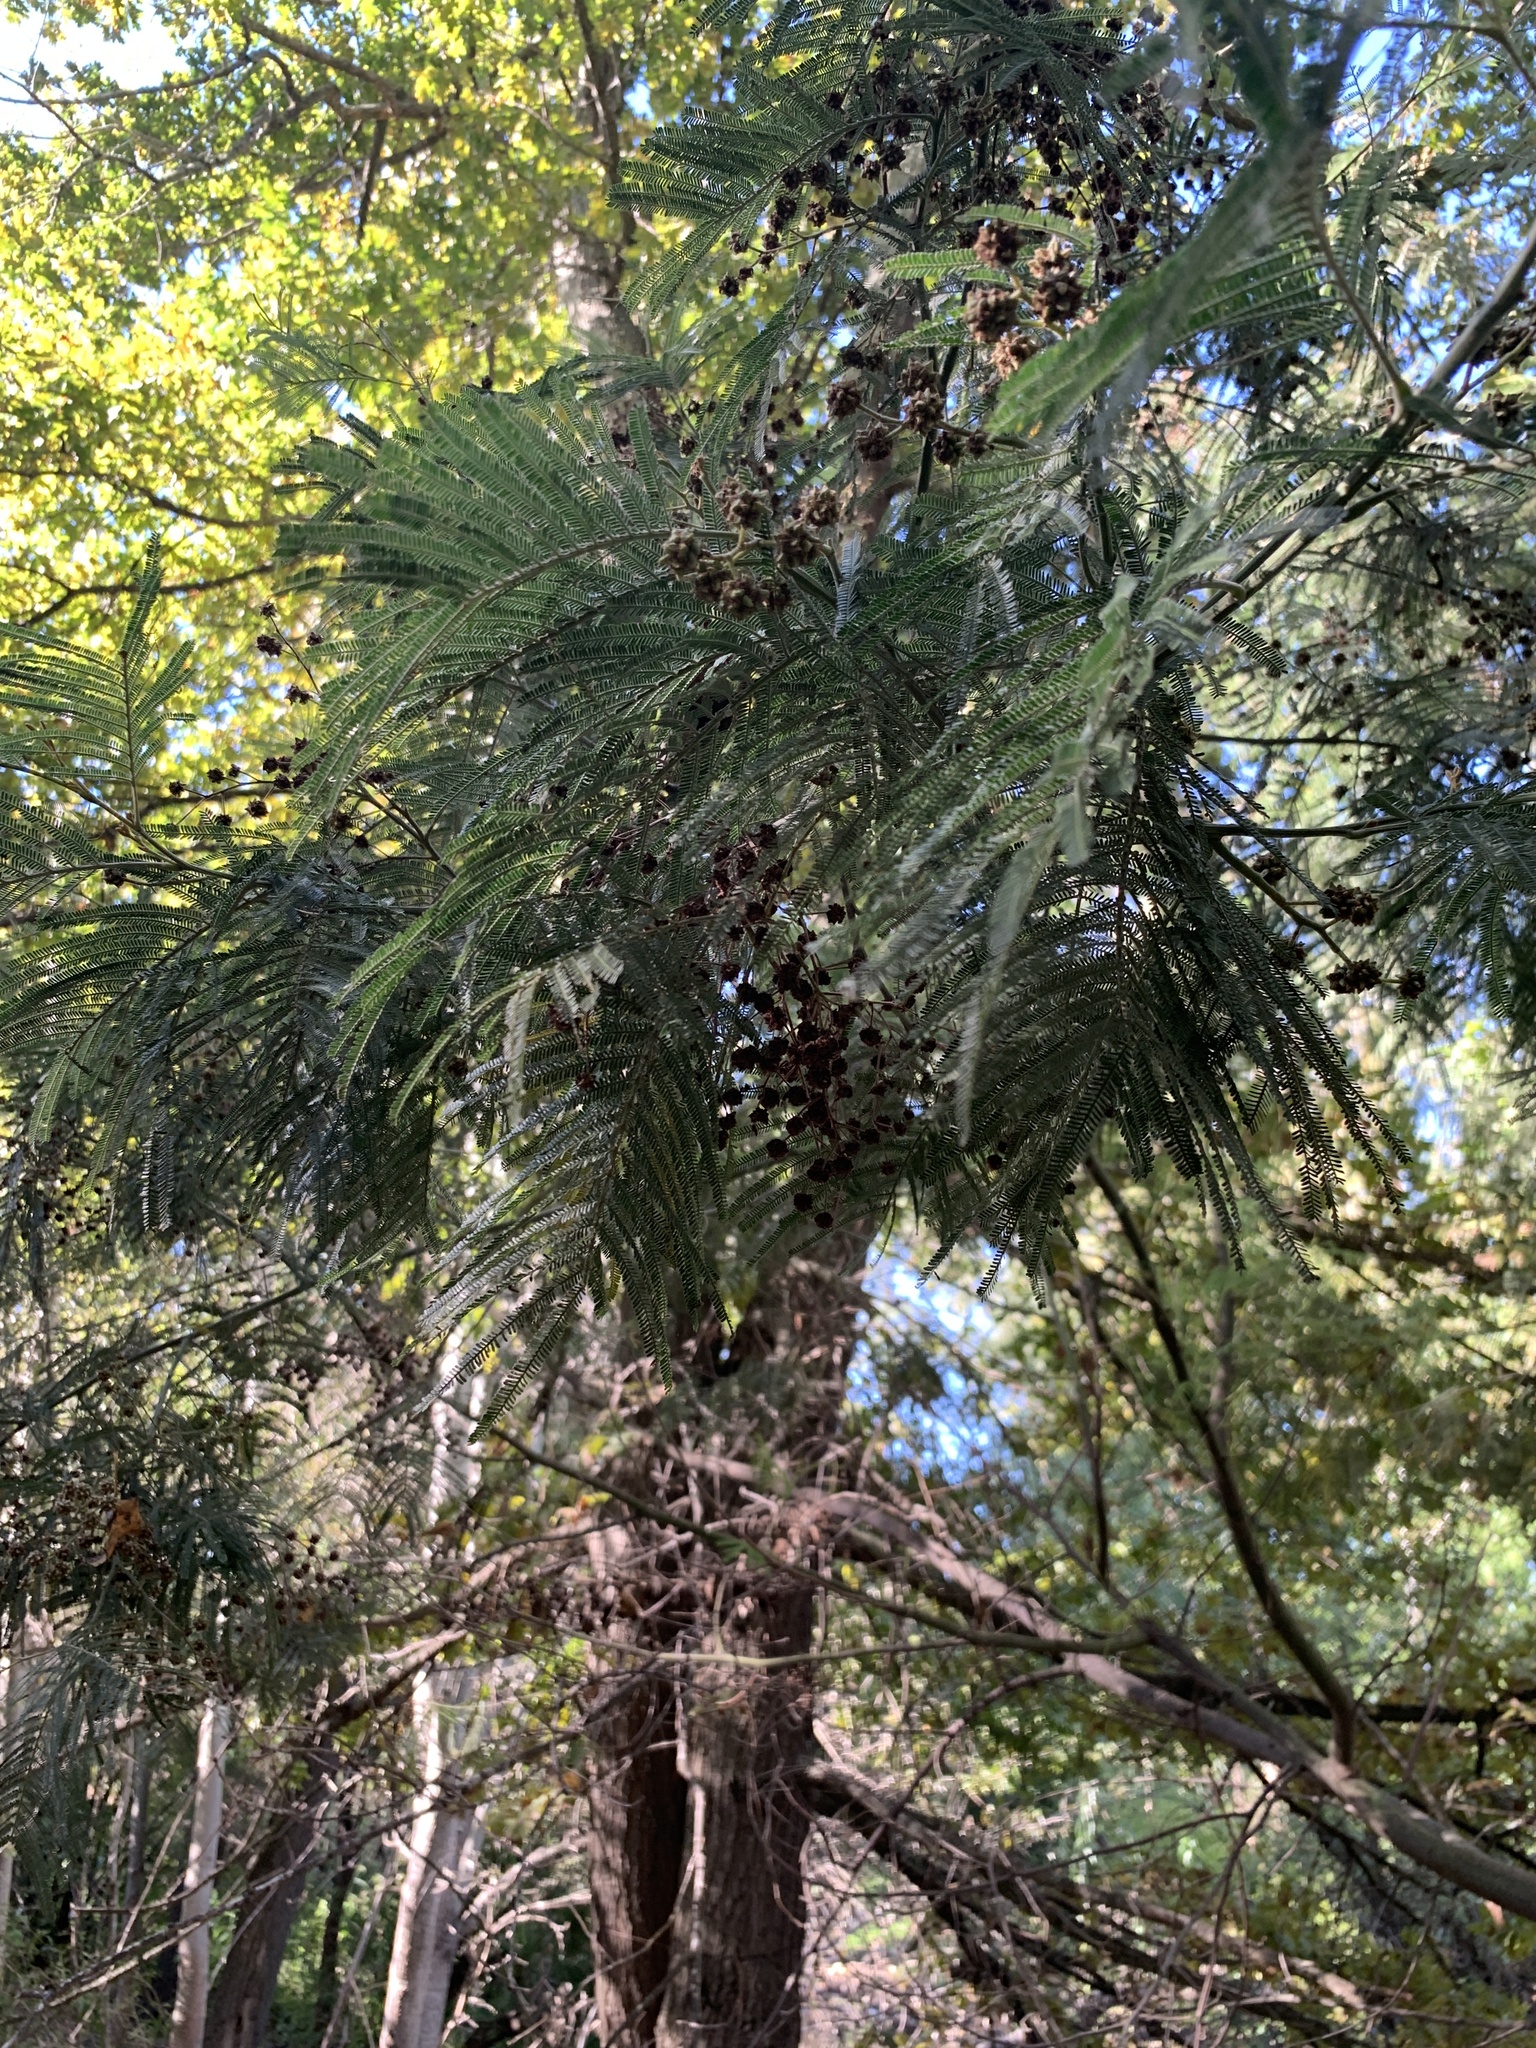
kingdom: Animalia
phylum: Arthropoda
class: Insecta
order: Diptera
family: Cecidomyiidae
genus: Dasineura
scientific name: Dasineura rubiformis
